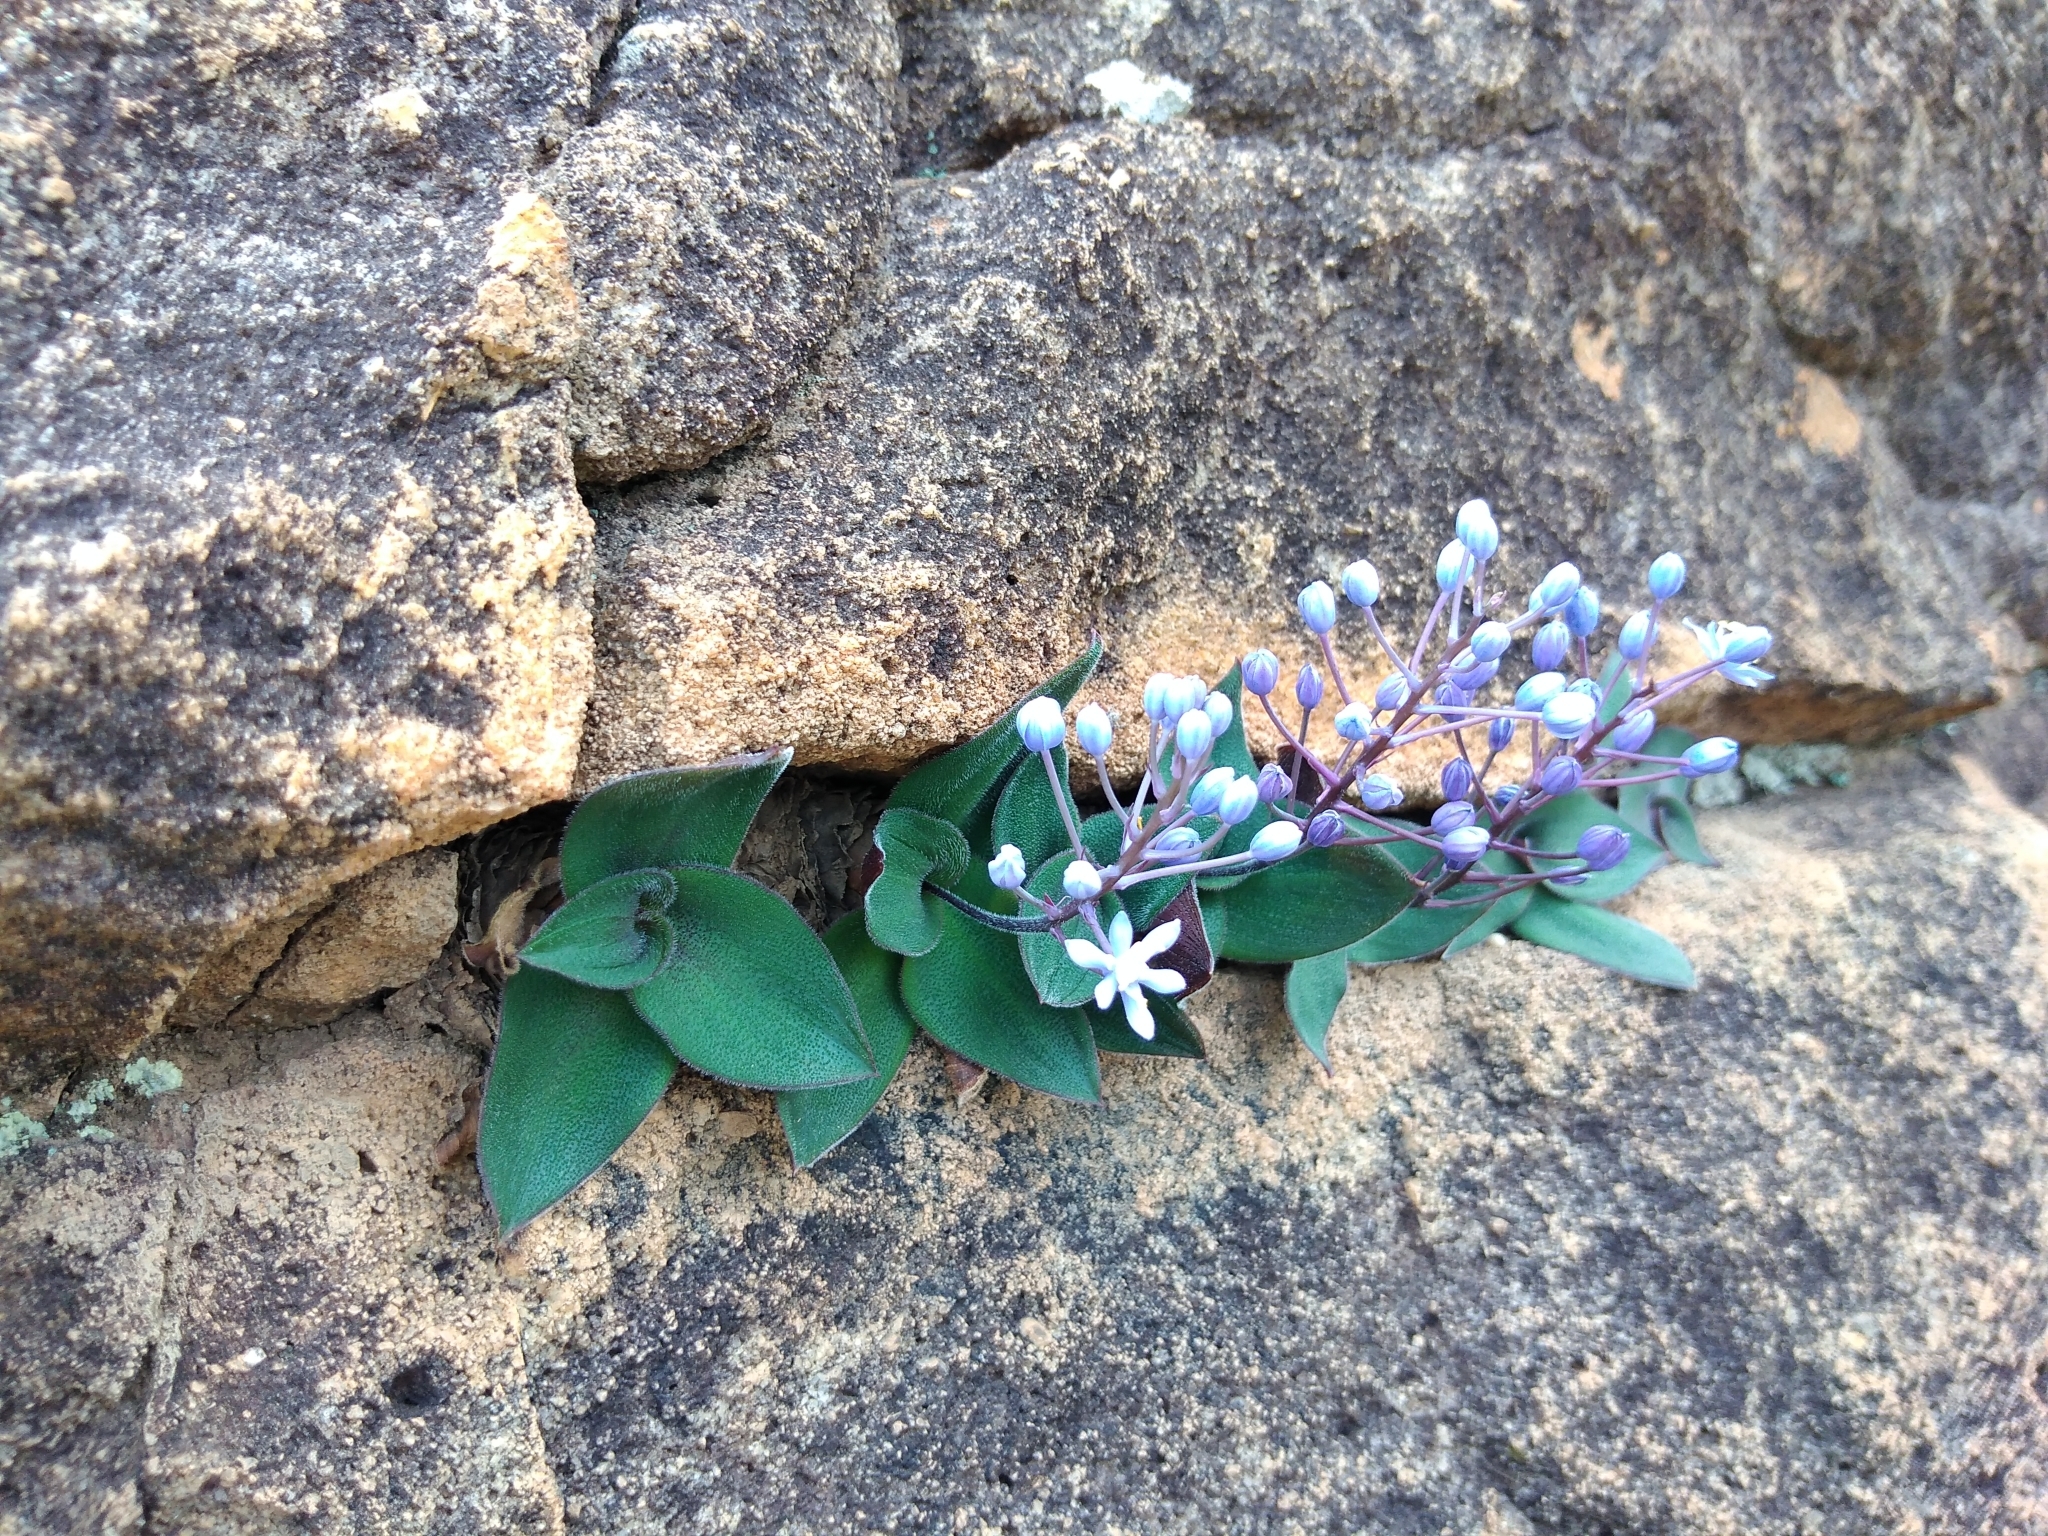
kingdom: Plantae
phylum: Tracheophyta
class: Liliopsida
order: Asparagales
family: Asparagaceae
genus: Merwilla
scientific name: Merwilla dracomontana
